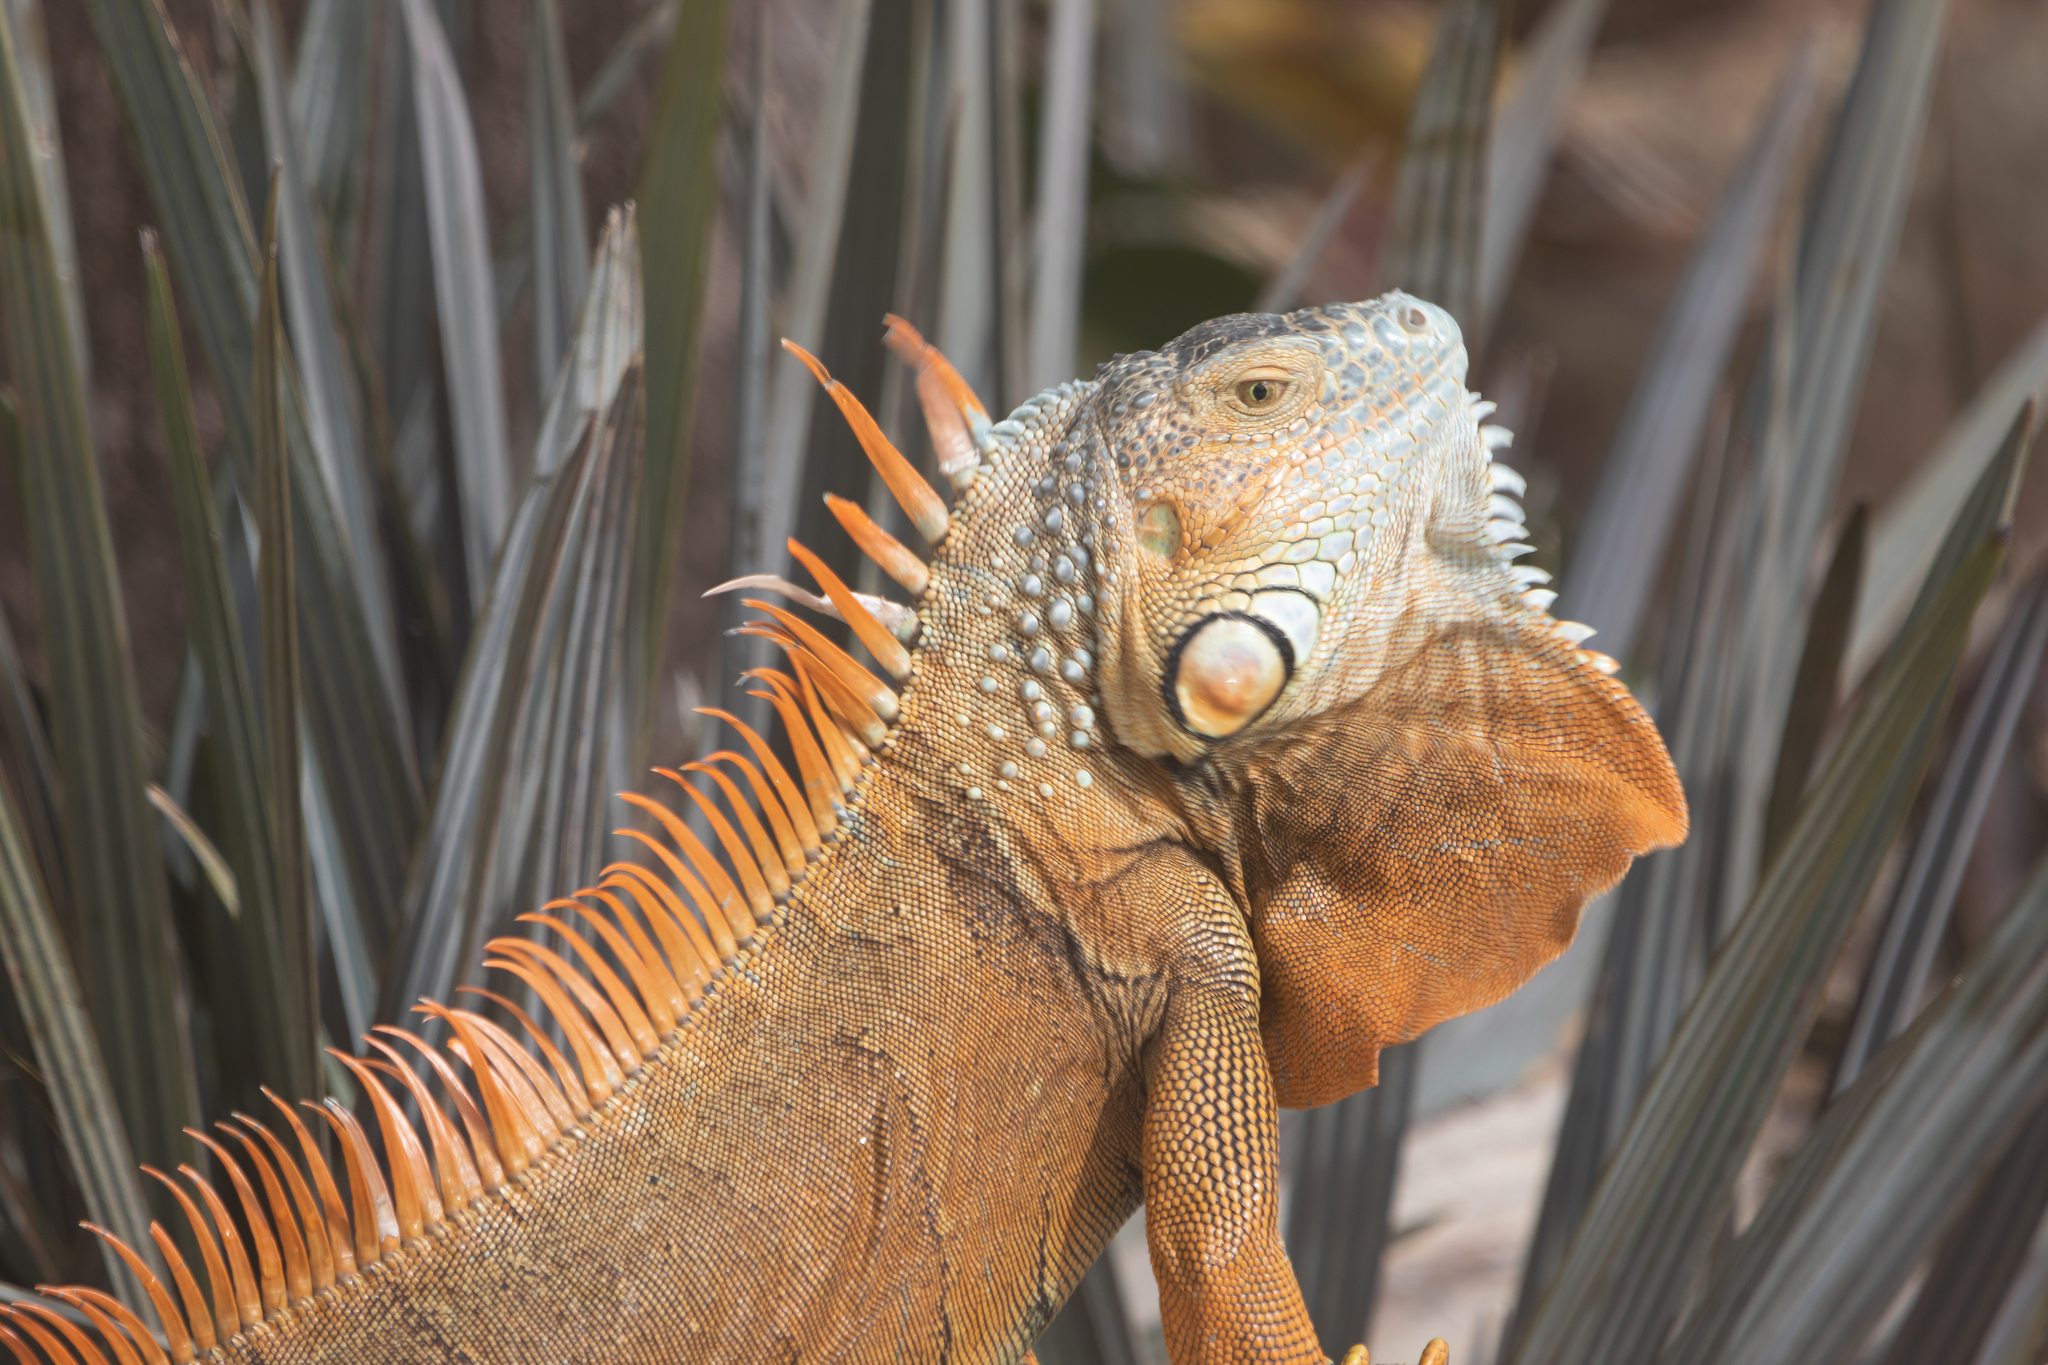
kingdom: Animalia
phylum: Chordata
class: Squamata
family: Iguanidae
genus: Iguana
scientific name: Iguana iguana
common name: Green iguana
